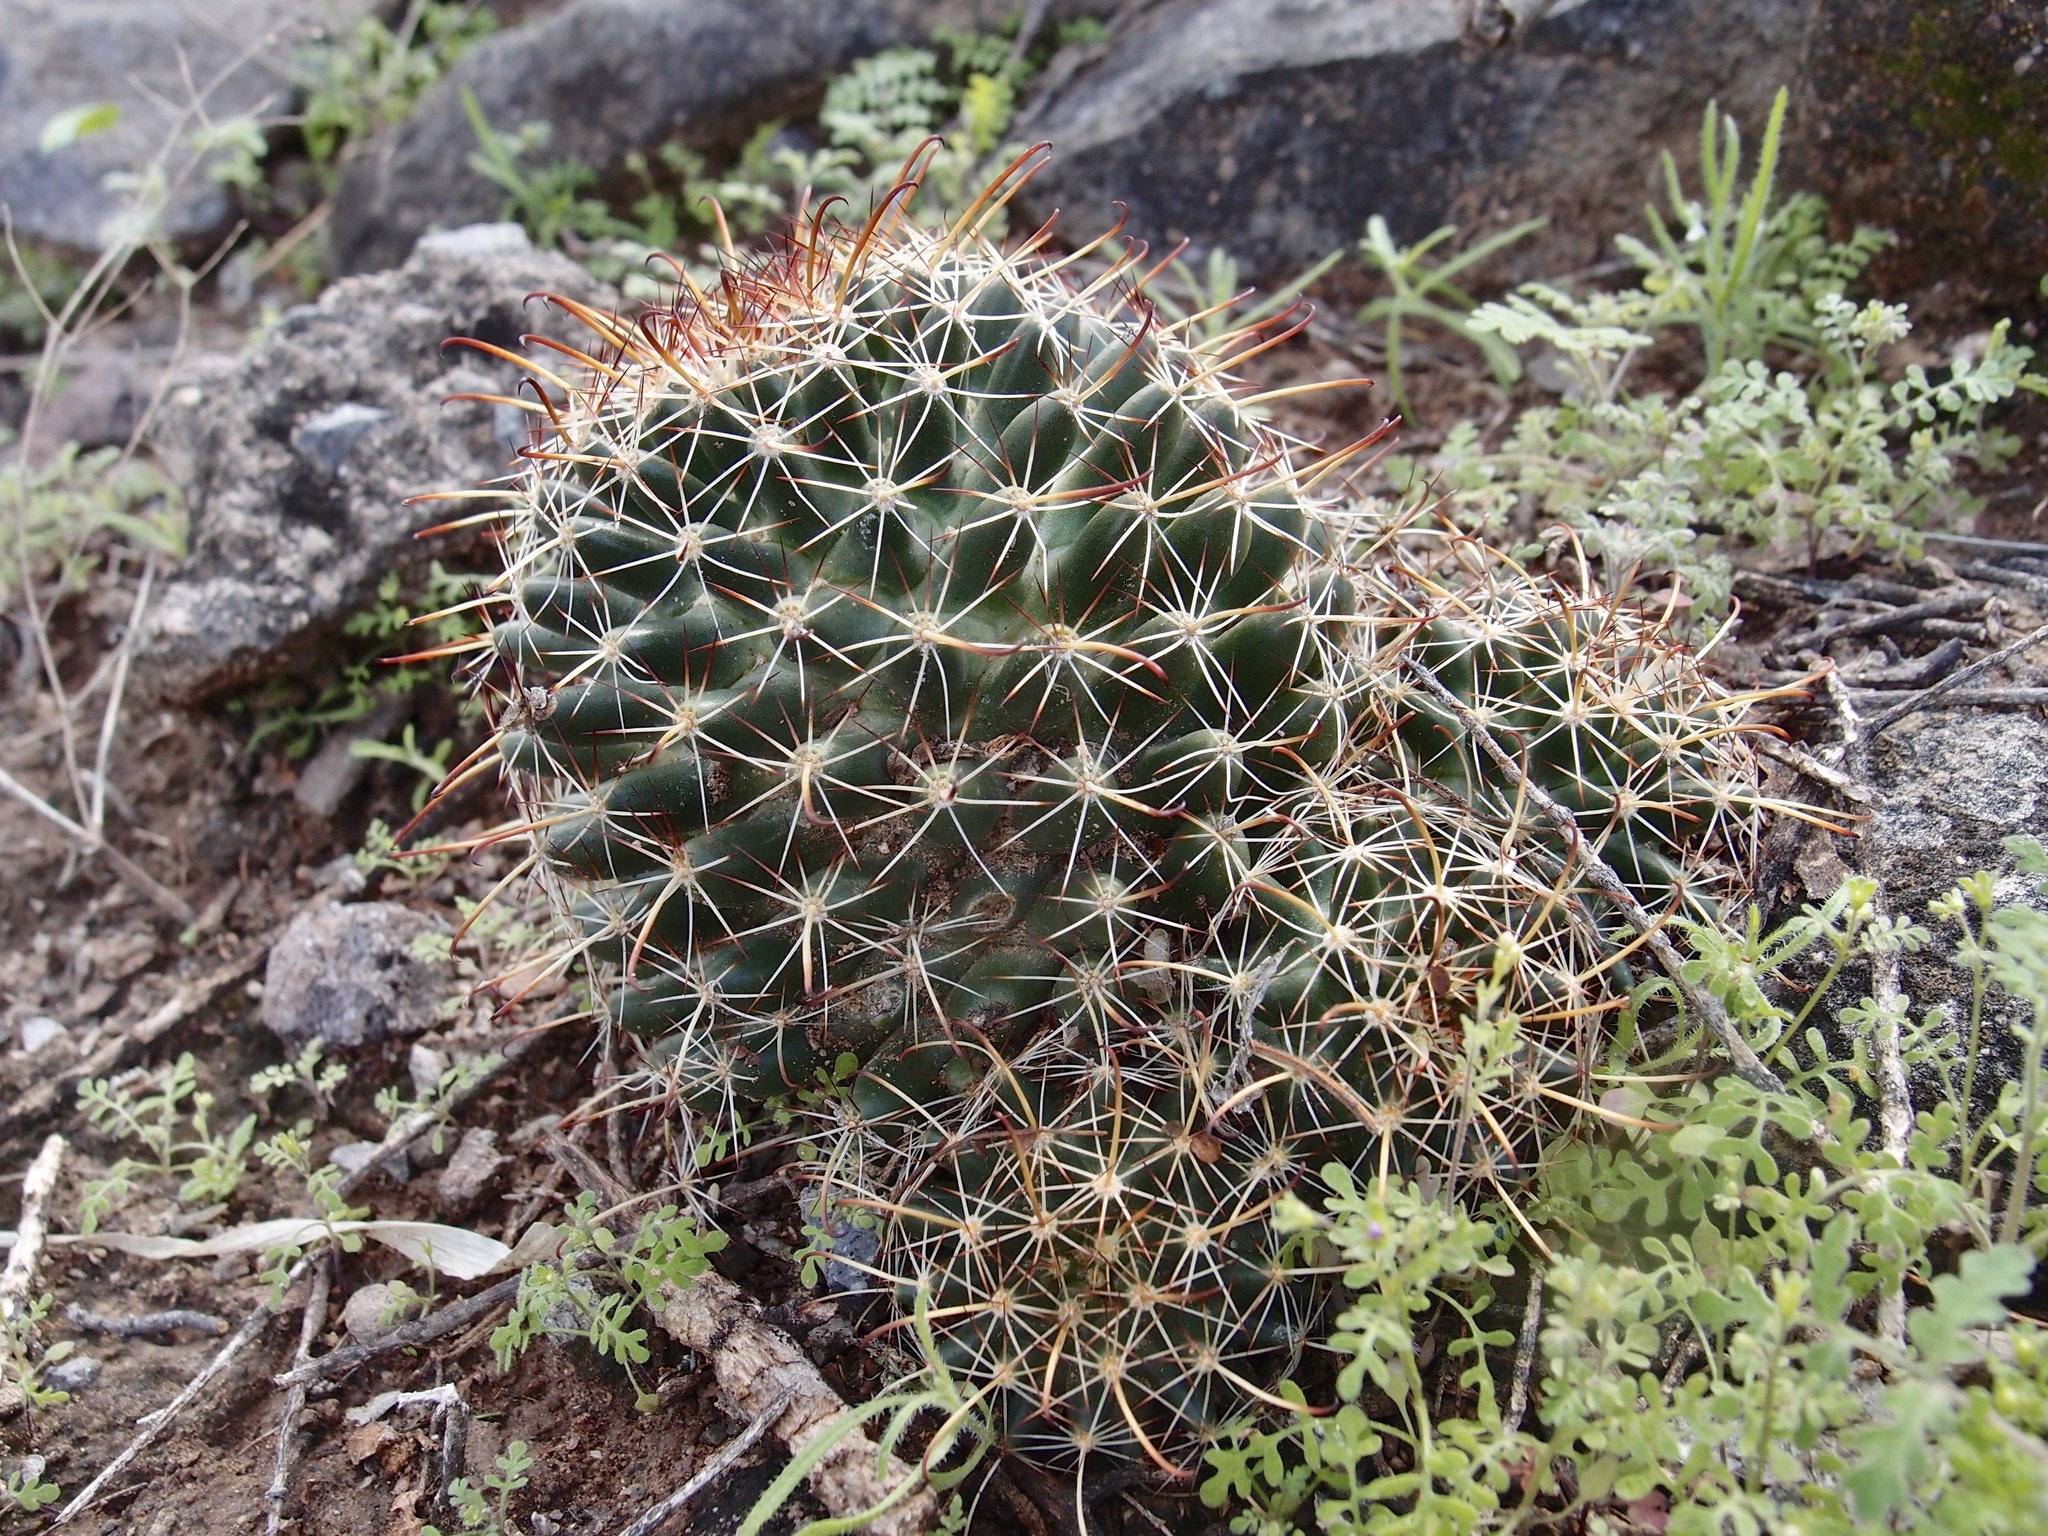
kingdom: Plantae
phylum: Tracheophyta
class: Magnoliopsida
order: Caryophyllales
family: Cactaceae
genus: Cochemiea
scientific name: Cochemiea mainiae
